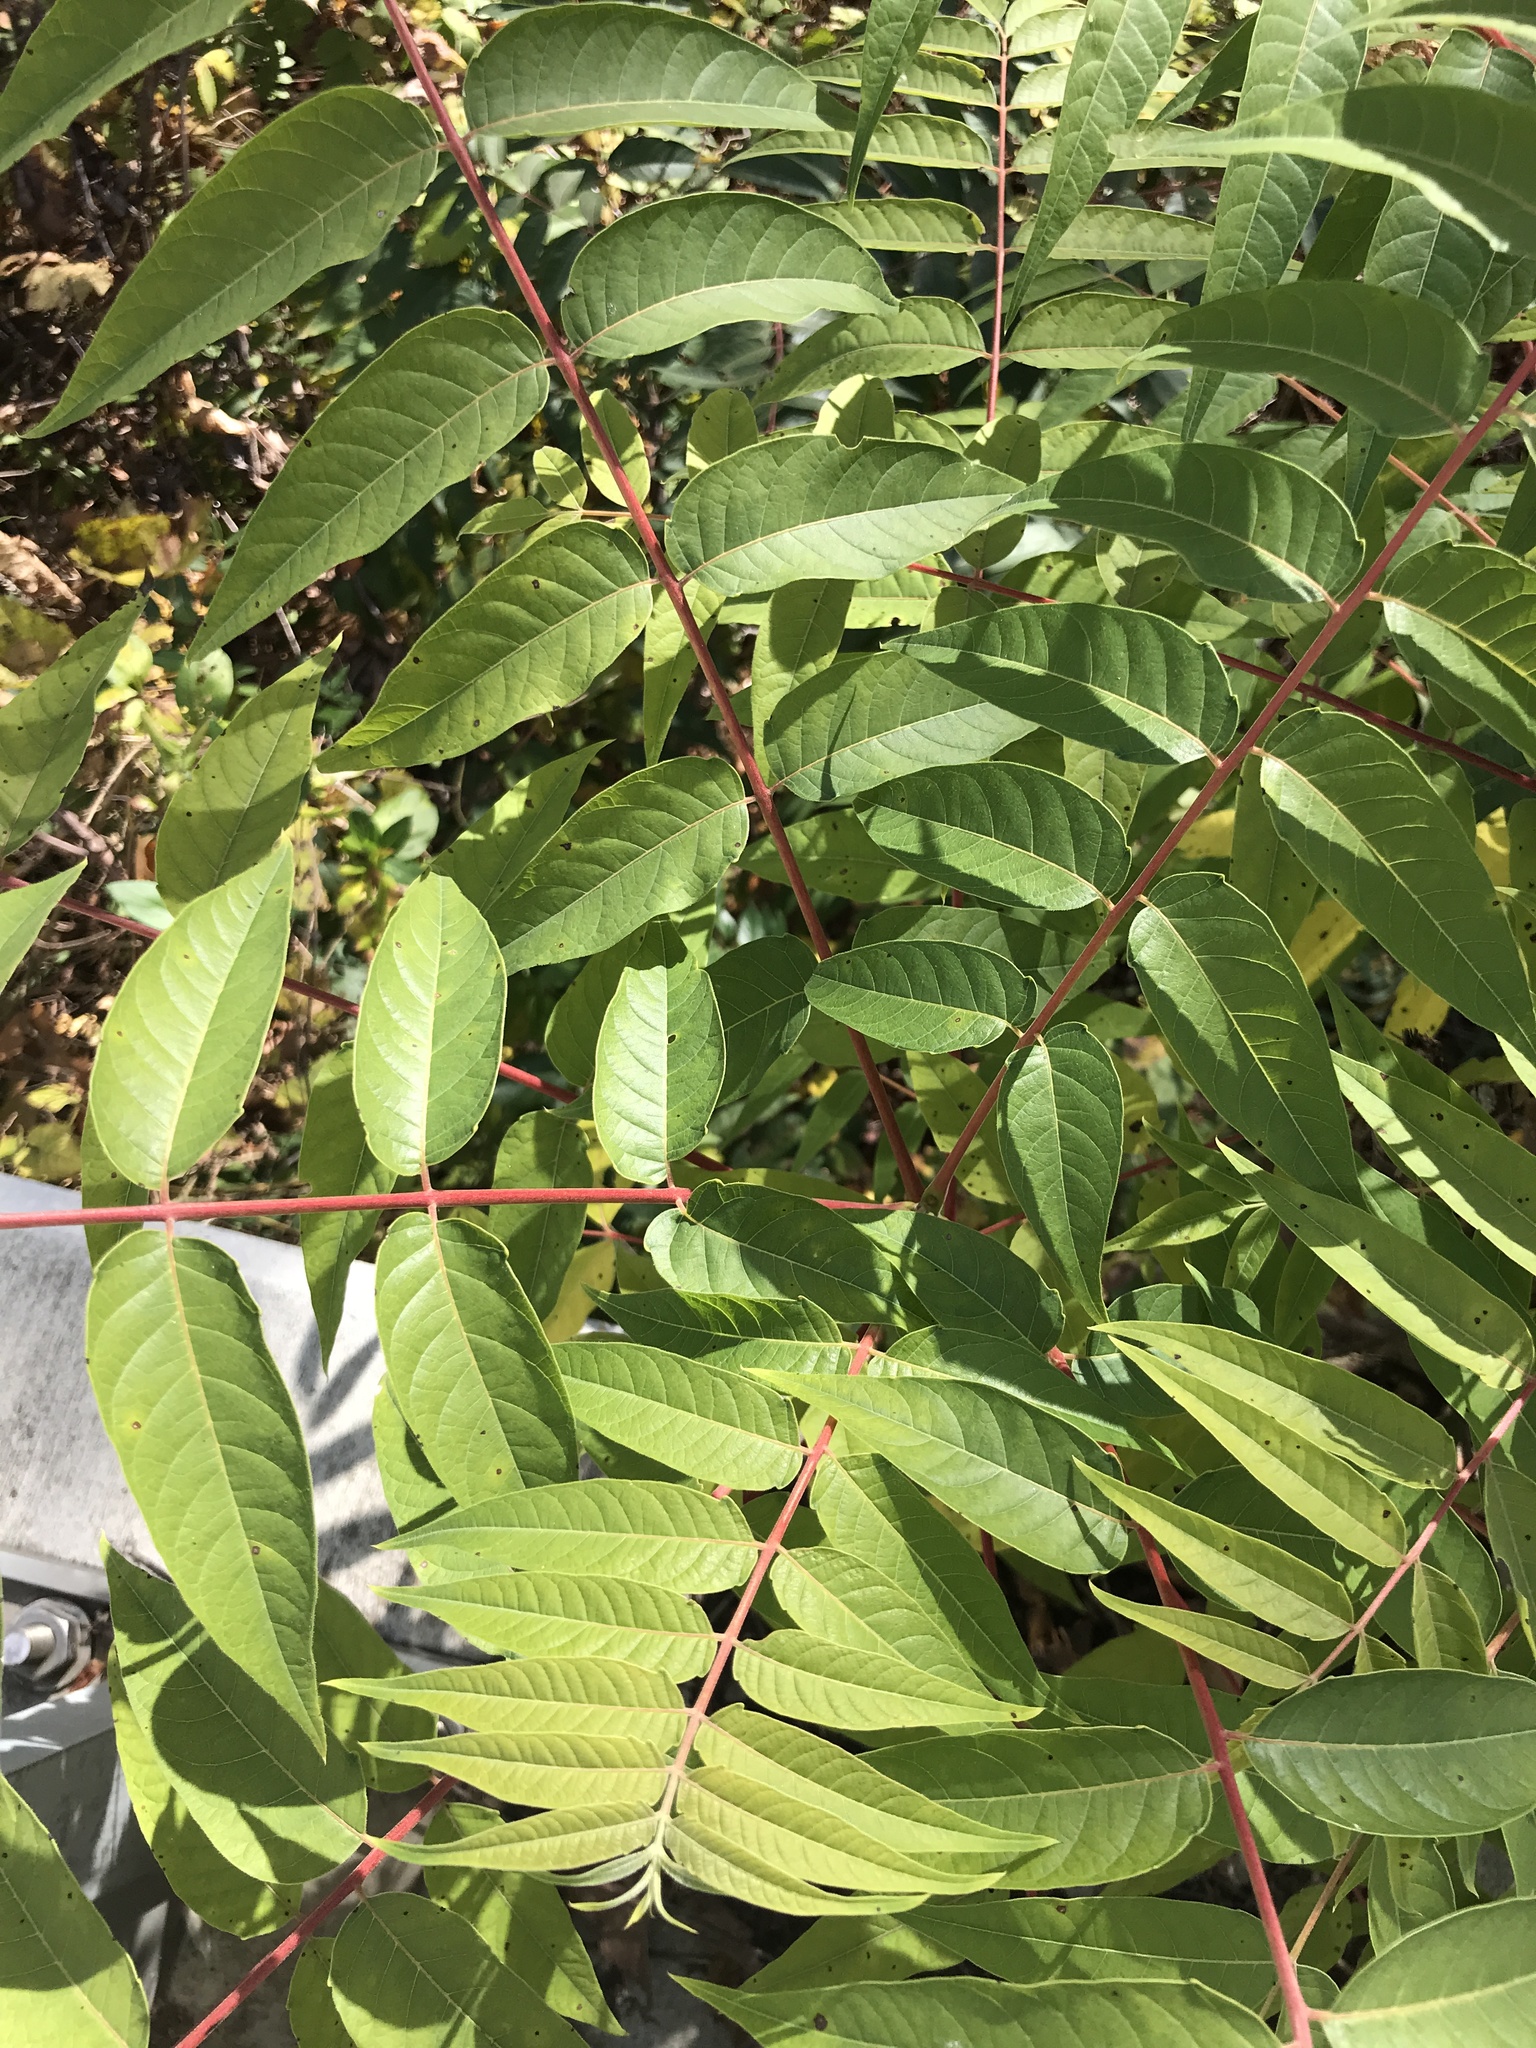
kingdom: Plantae
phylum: Tracheophyta
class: Magnoliopsida
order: Sapindales
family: Simaroubaceae
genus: Ailanthus
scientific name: Ailanthus altissima
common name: Tree-of-heaven
